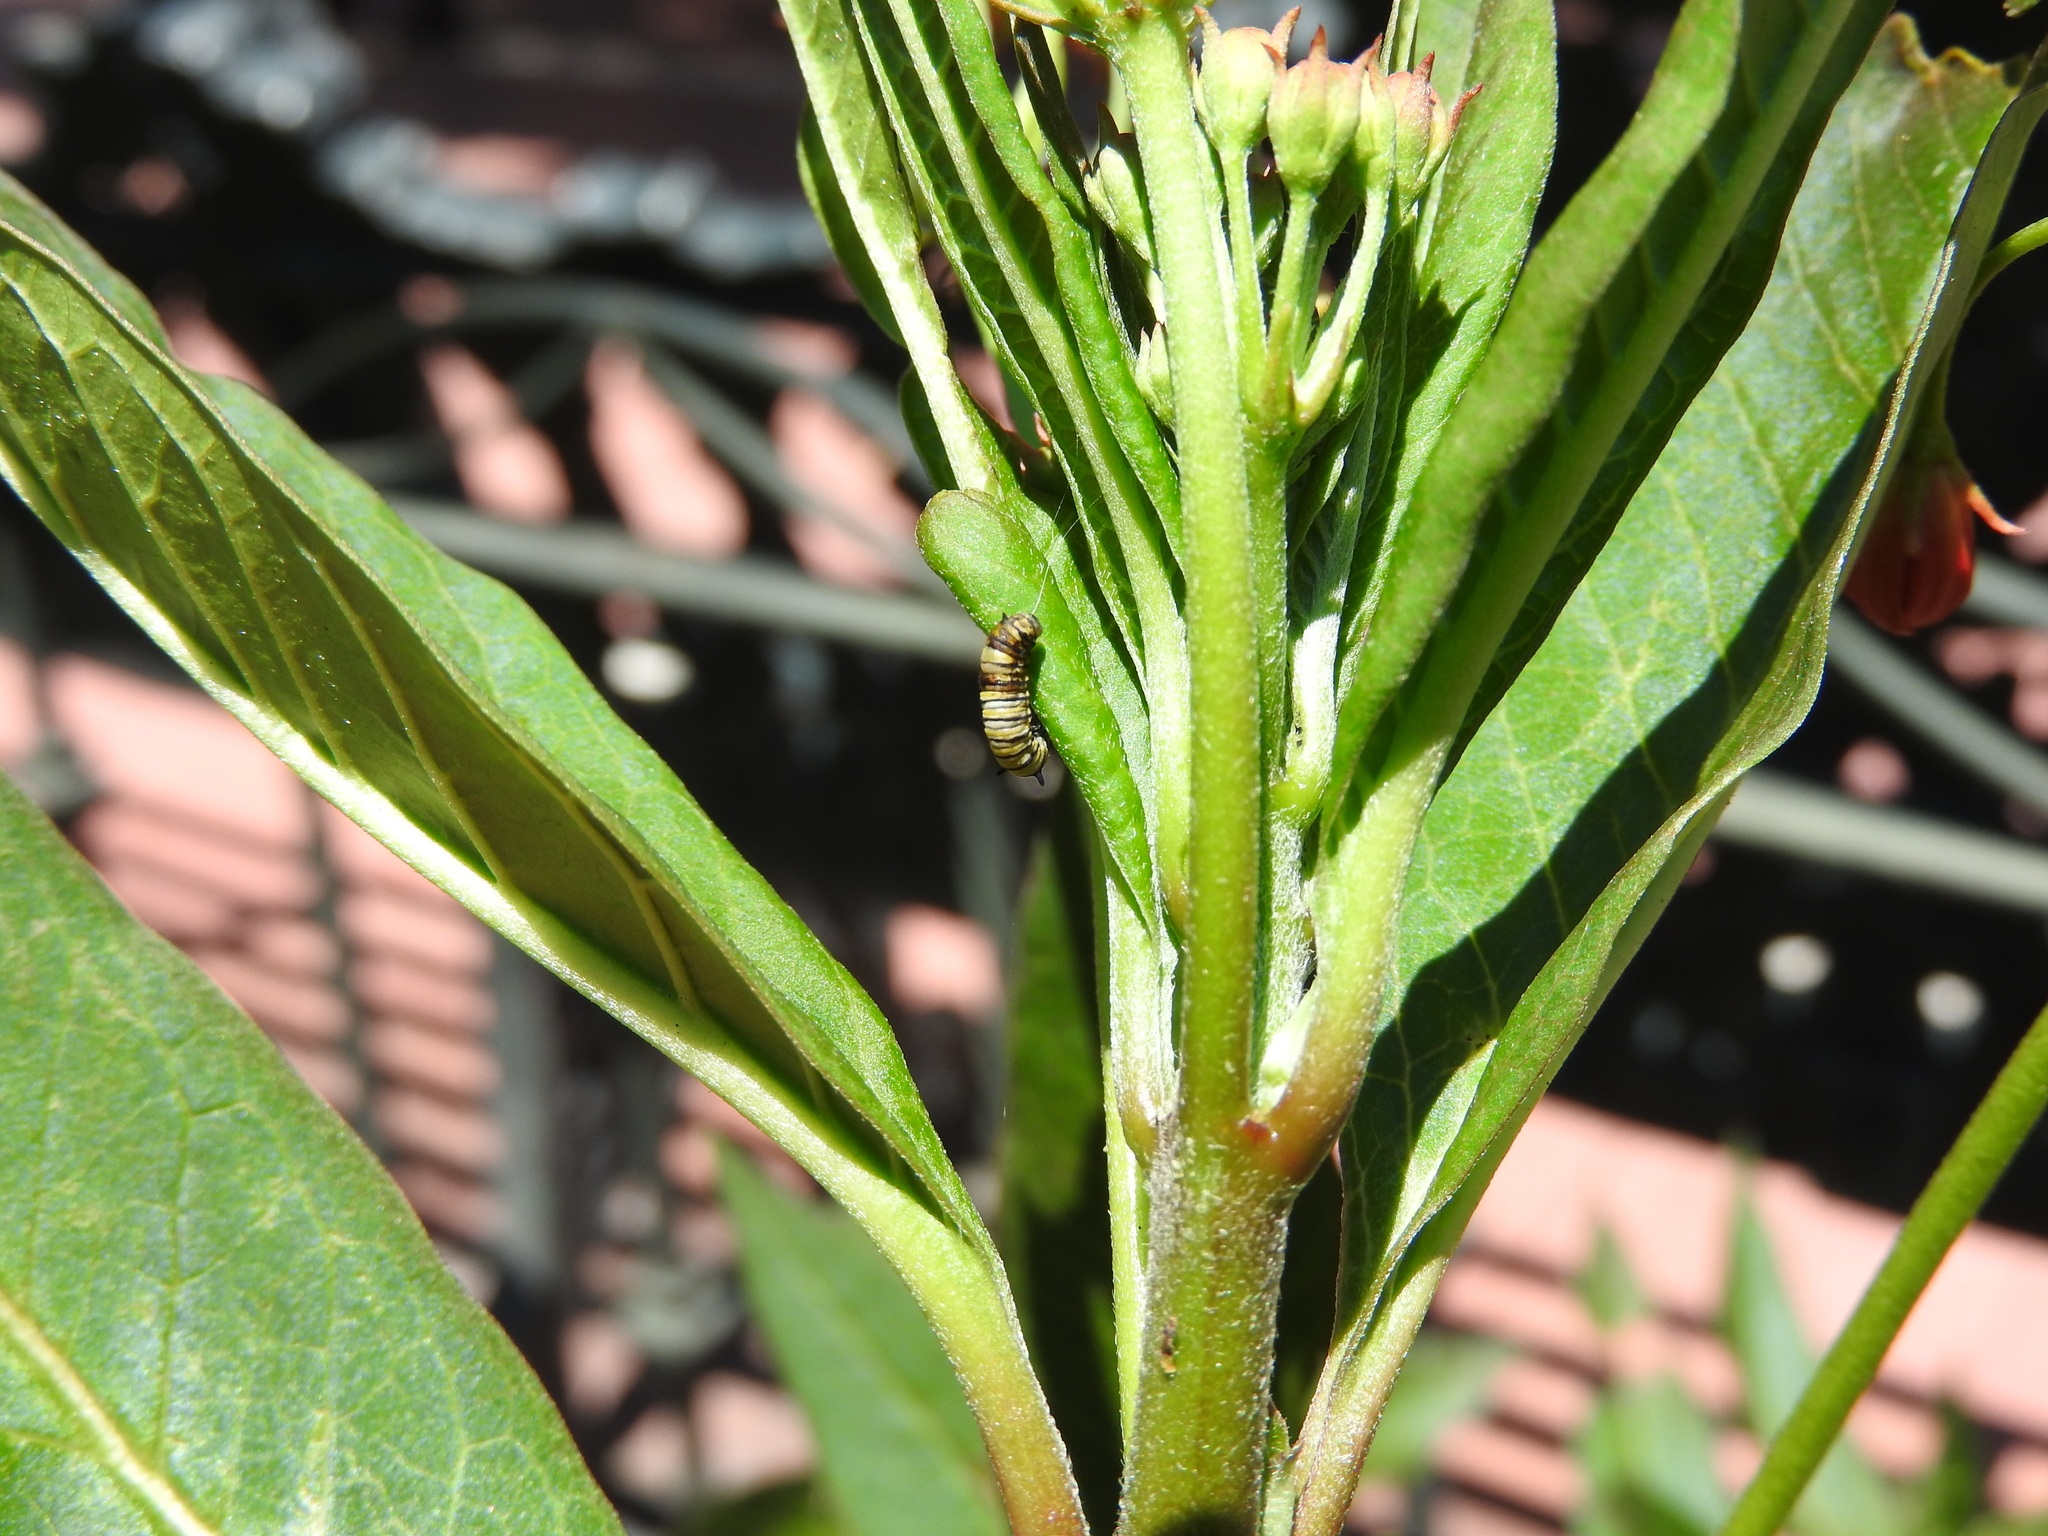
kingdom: Animalia
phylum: Arthropoda
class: Insecta
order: Lepidoptera
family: Nymphalidae
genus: Danaus
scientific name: Danaus plexippus
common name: Monarch
